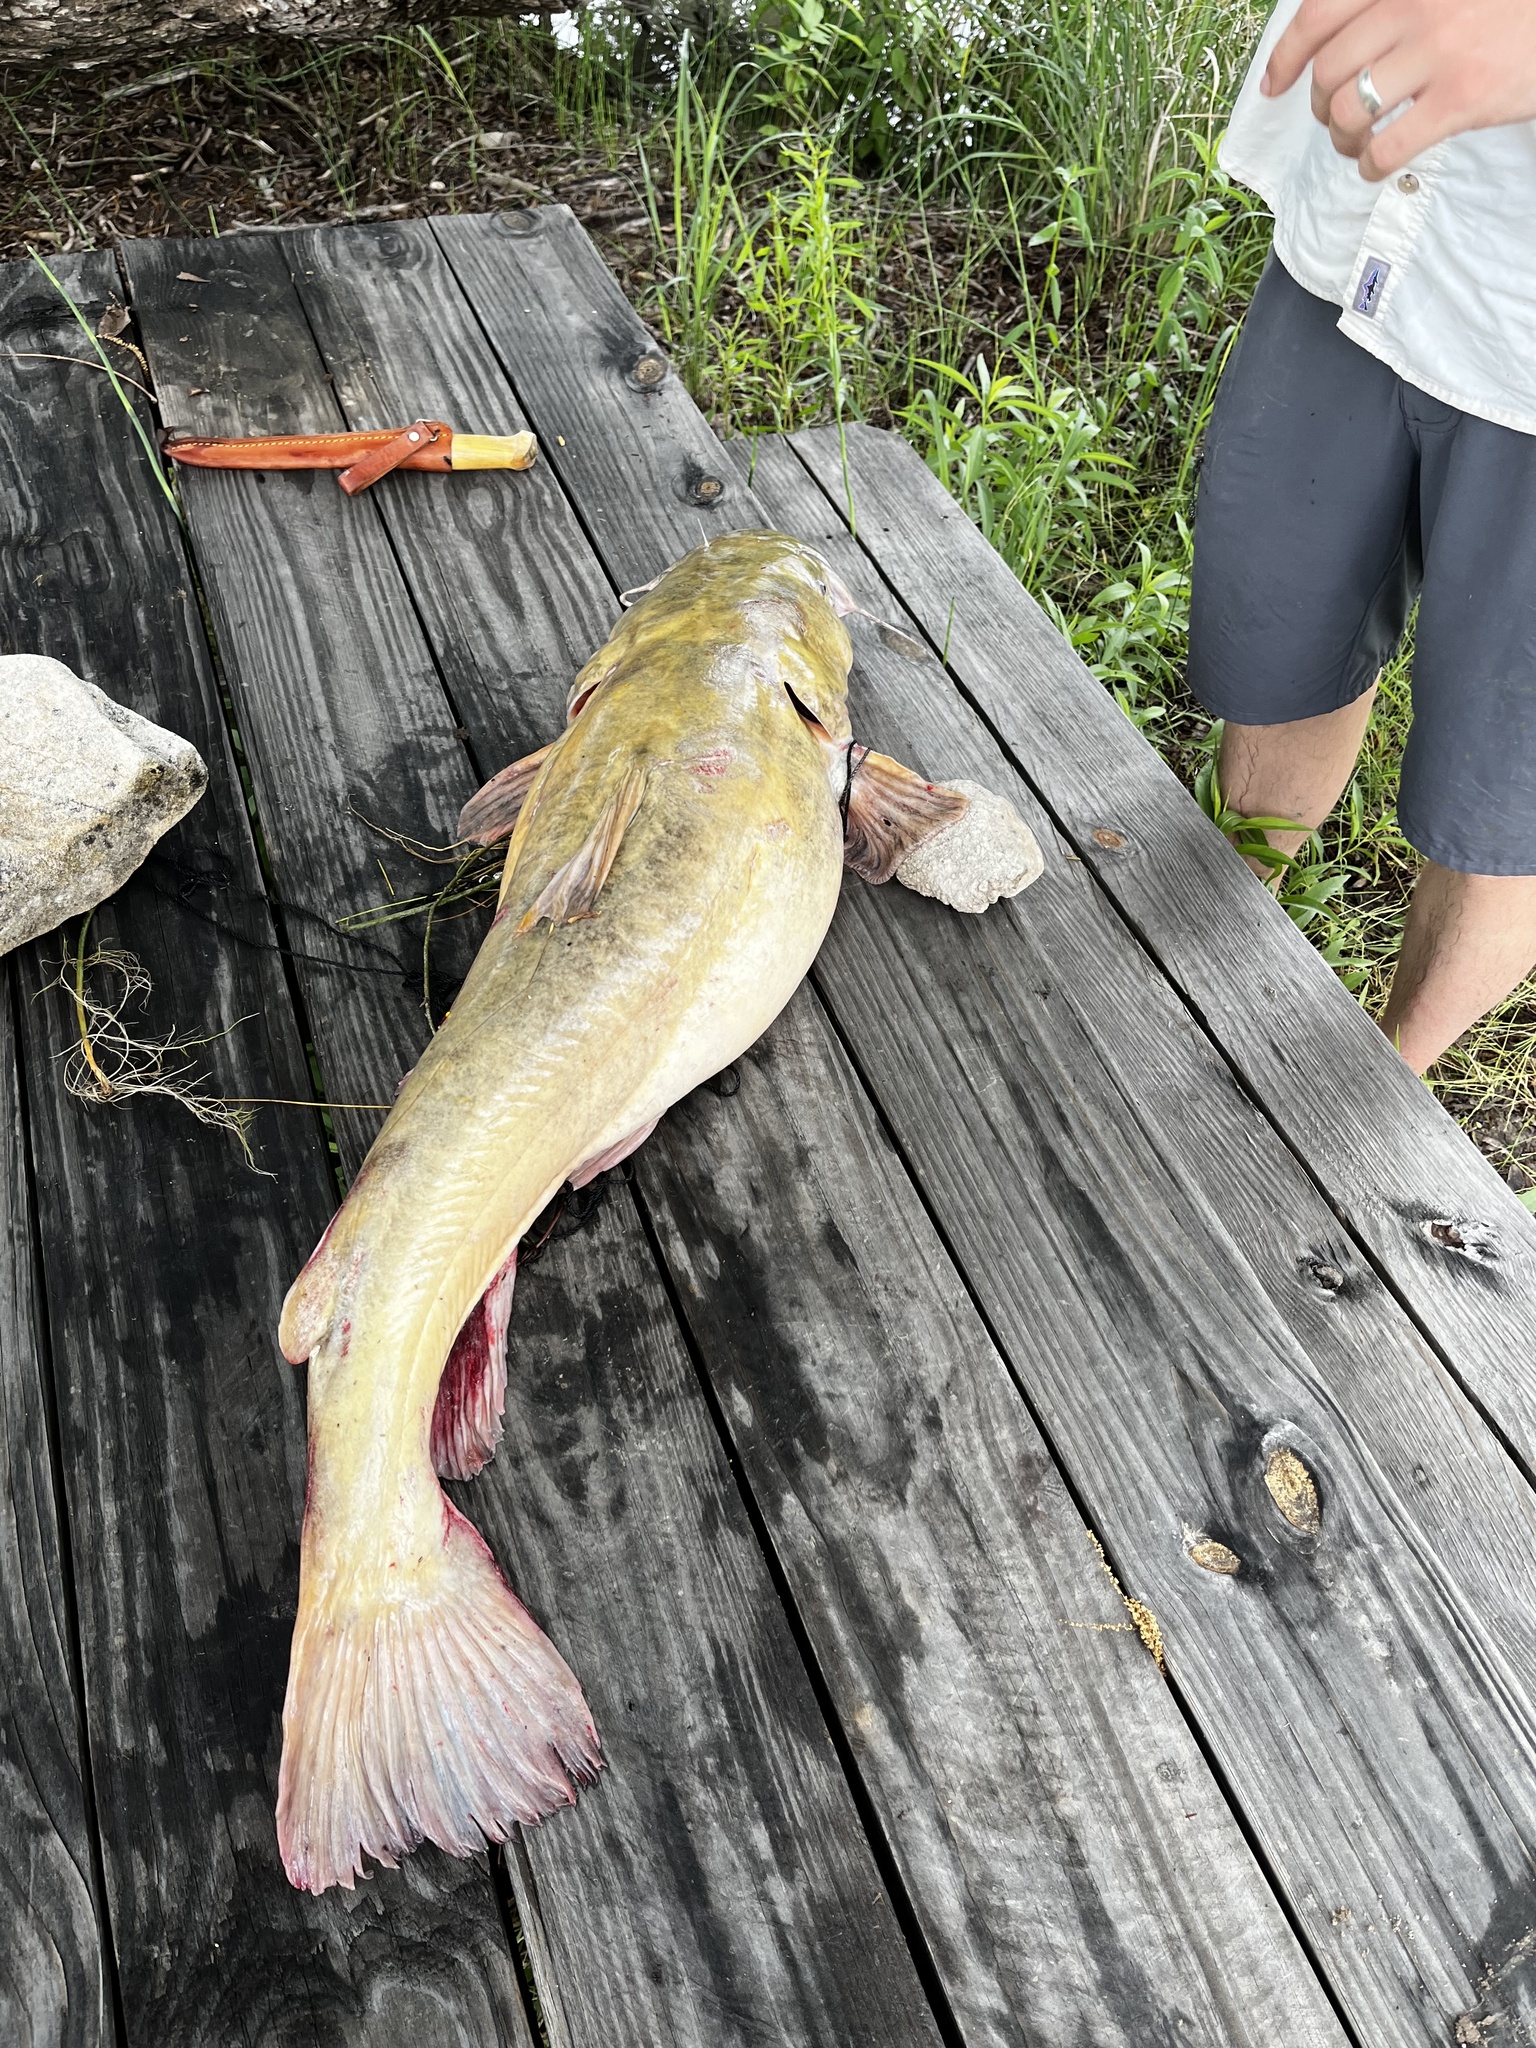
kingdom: Animalia
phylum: Chordata
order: Siluriformes
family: Ictaluridae
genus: Pylodictis
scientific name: Pylodictis olivaris
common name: Flathead catfish
